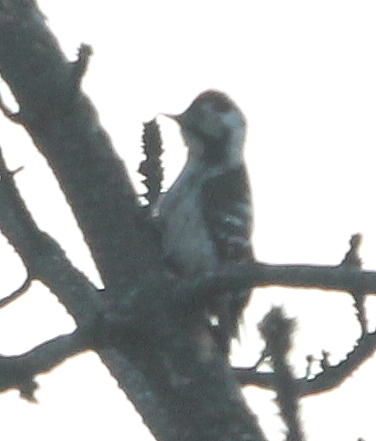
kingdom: Animalia
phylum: Chordata
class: Aves
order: Piciformes
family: Picidae
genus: Dryobates
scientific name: Dryobates minor
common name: Lesser spotted woodpecker
